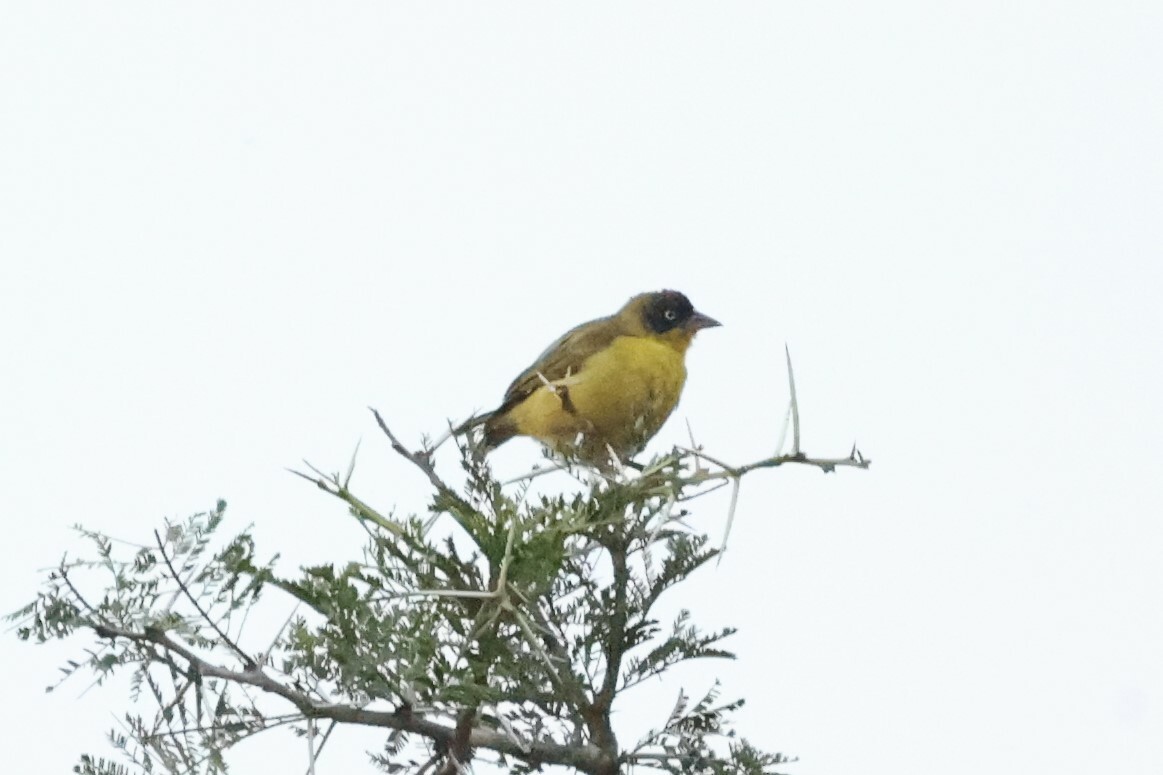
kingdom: Animalia
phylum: Chordata
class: Aves
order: Passeriformes
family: Ploceidae
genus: Ploceus
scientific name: Ploceus baglafecht
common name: Baglafecht weaver
